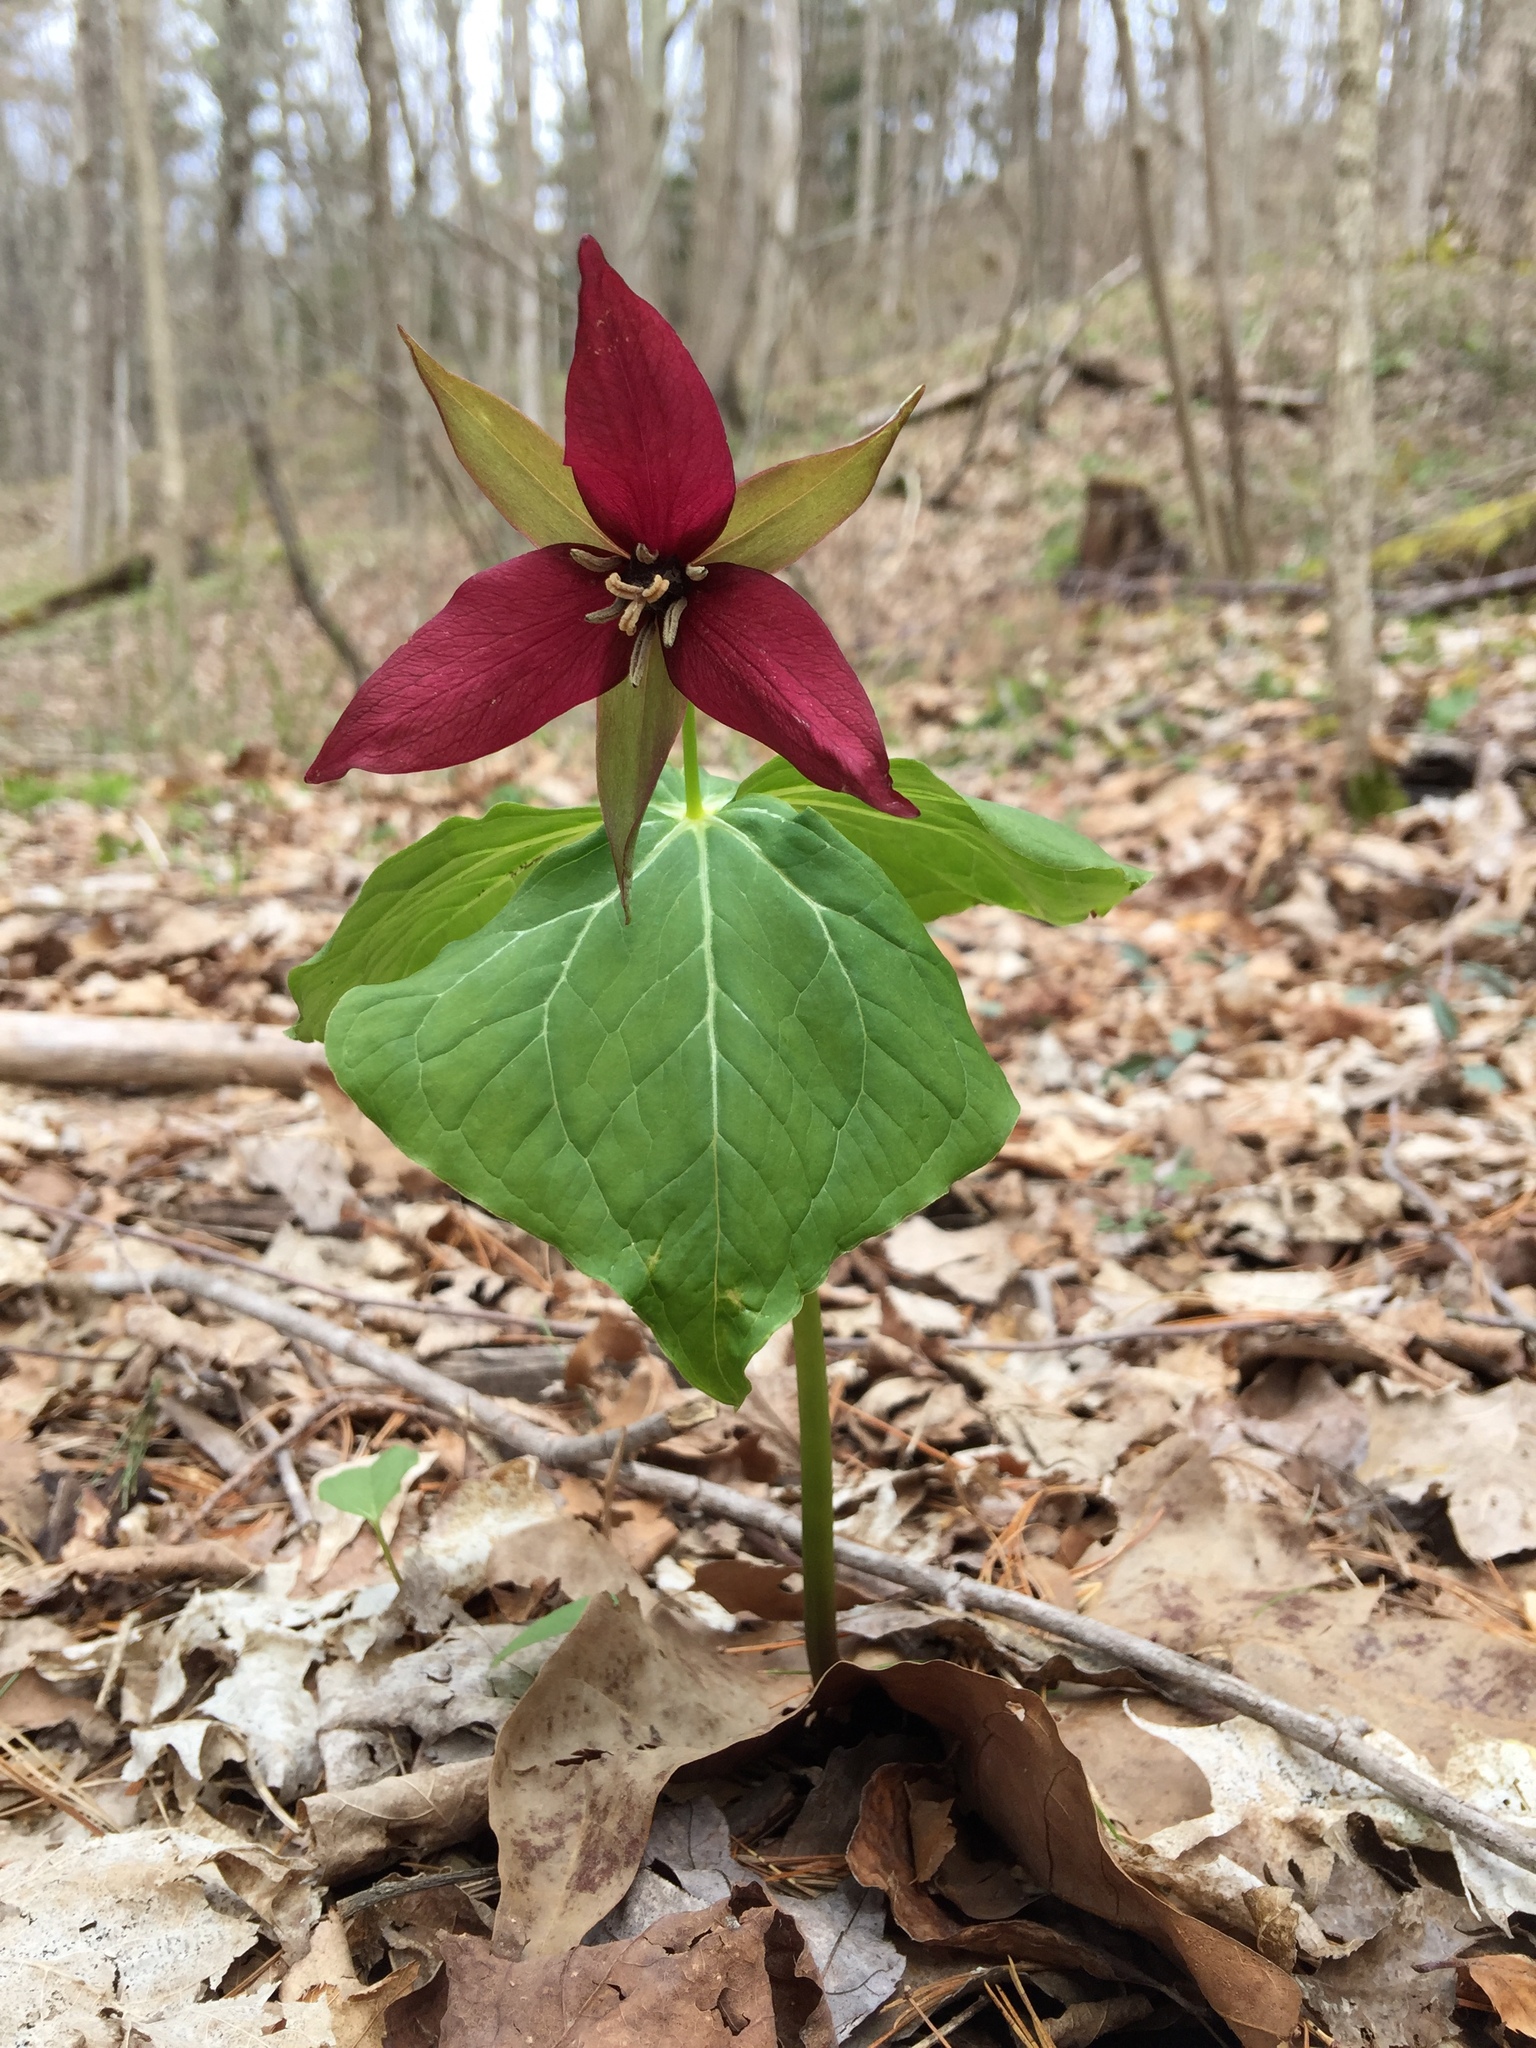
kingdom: Plantae
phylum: Tracheophyta
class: Liliopsida
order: Liliales
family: Melanthiaceae
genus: Trillium
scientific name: Trillium erectum
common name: Purple trillium
